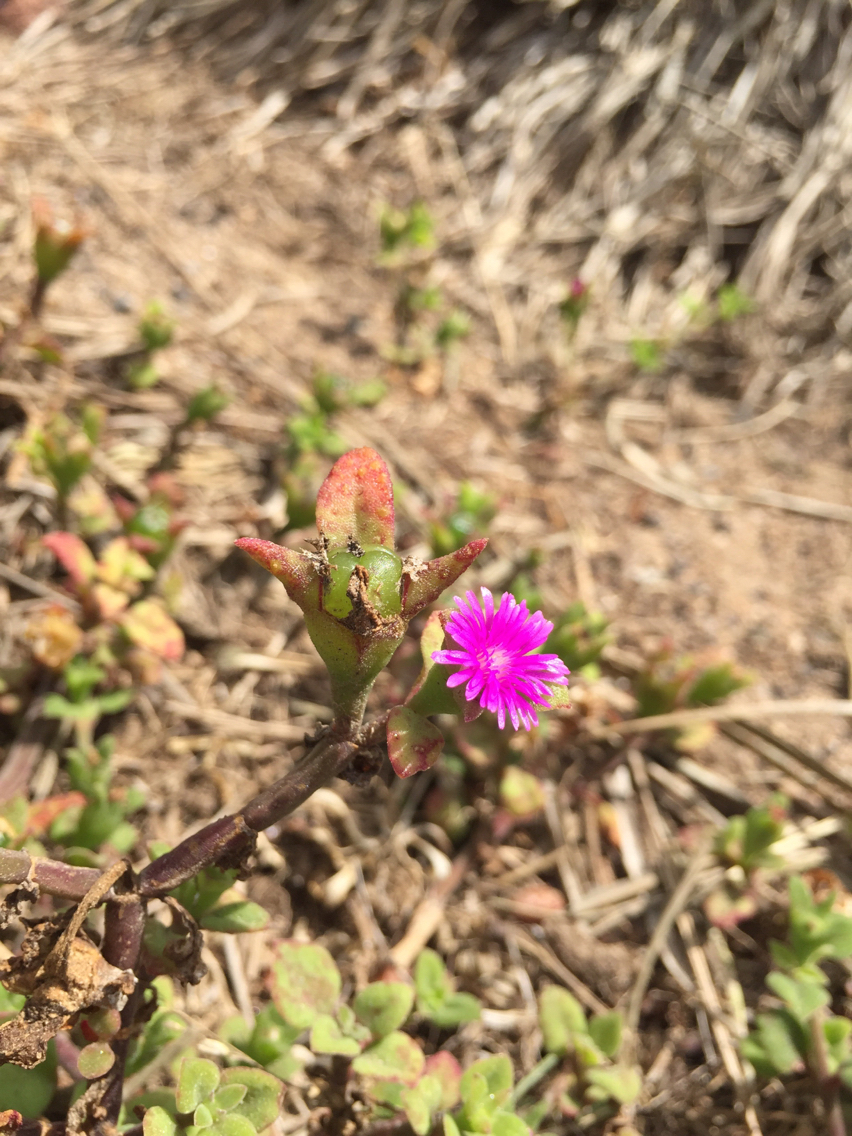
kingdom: Plantae
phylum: Tracheophyta
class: Magnoliopsida
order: Caryophyllales
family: Aizoaceae
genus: Mesembryanthemum
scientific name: Mesembryanthemum cordifolium
